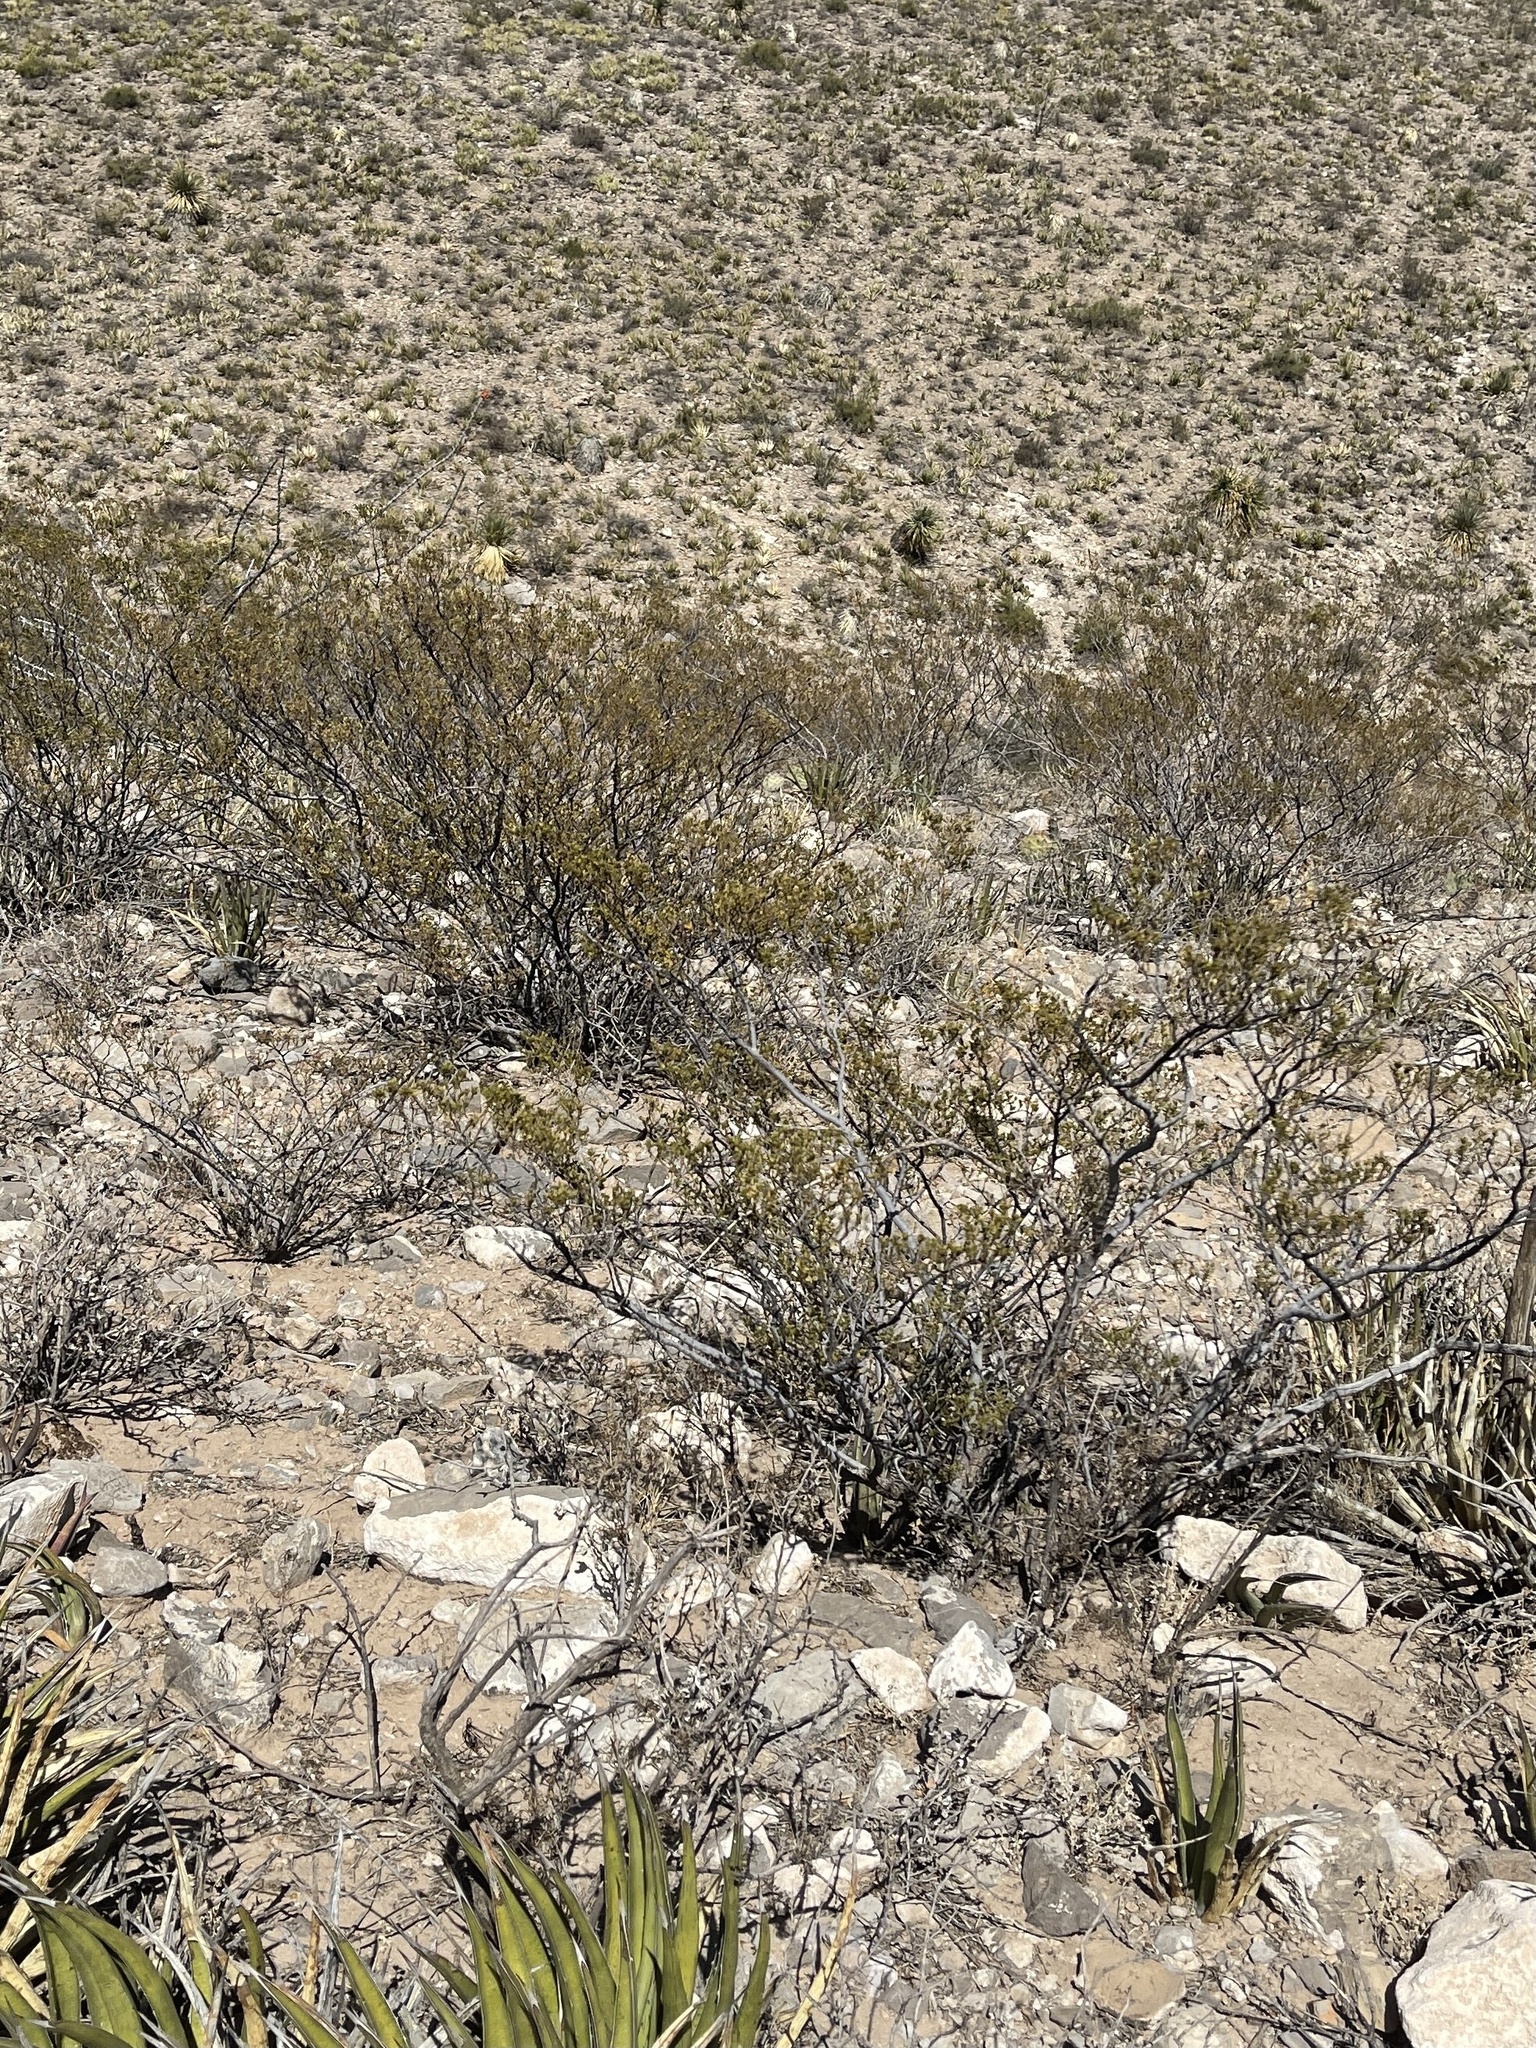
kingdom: Plantae
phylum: Tracheophyta
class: Magnoliopsida
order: Zygophyllales
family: Zygophyllaceae
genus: Larrea
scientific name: Larrea tridentata
